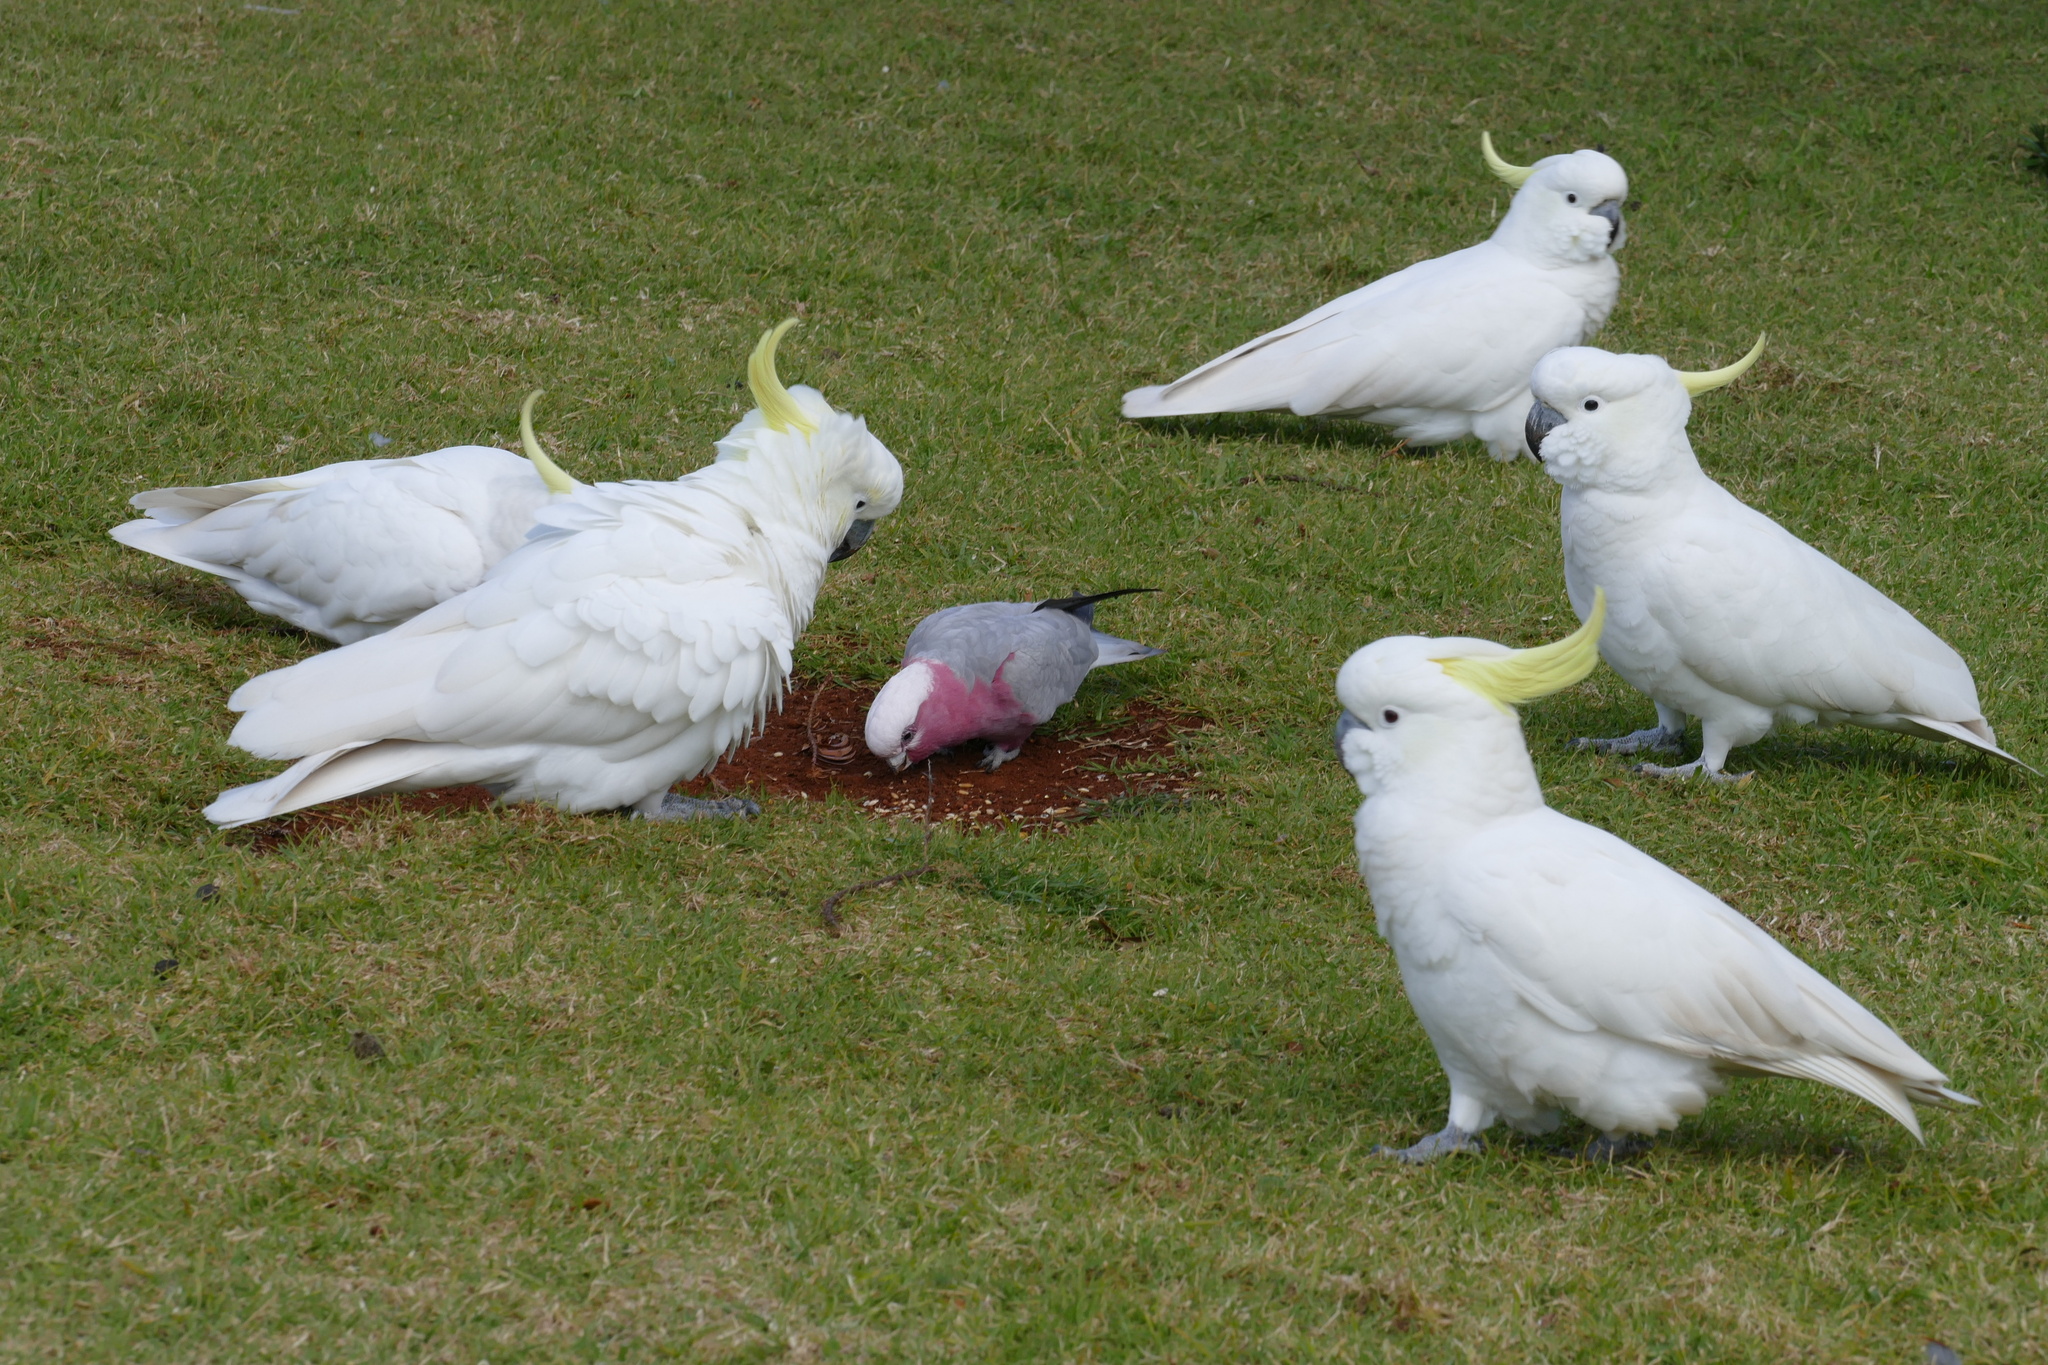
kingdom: Animalia
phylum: Chordata
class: Aves
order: Psittaciformes
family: Psittacidae
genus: Cacatua
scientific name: Cacatua galerita
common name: Sulphur-crested cockatoo
